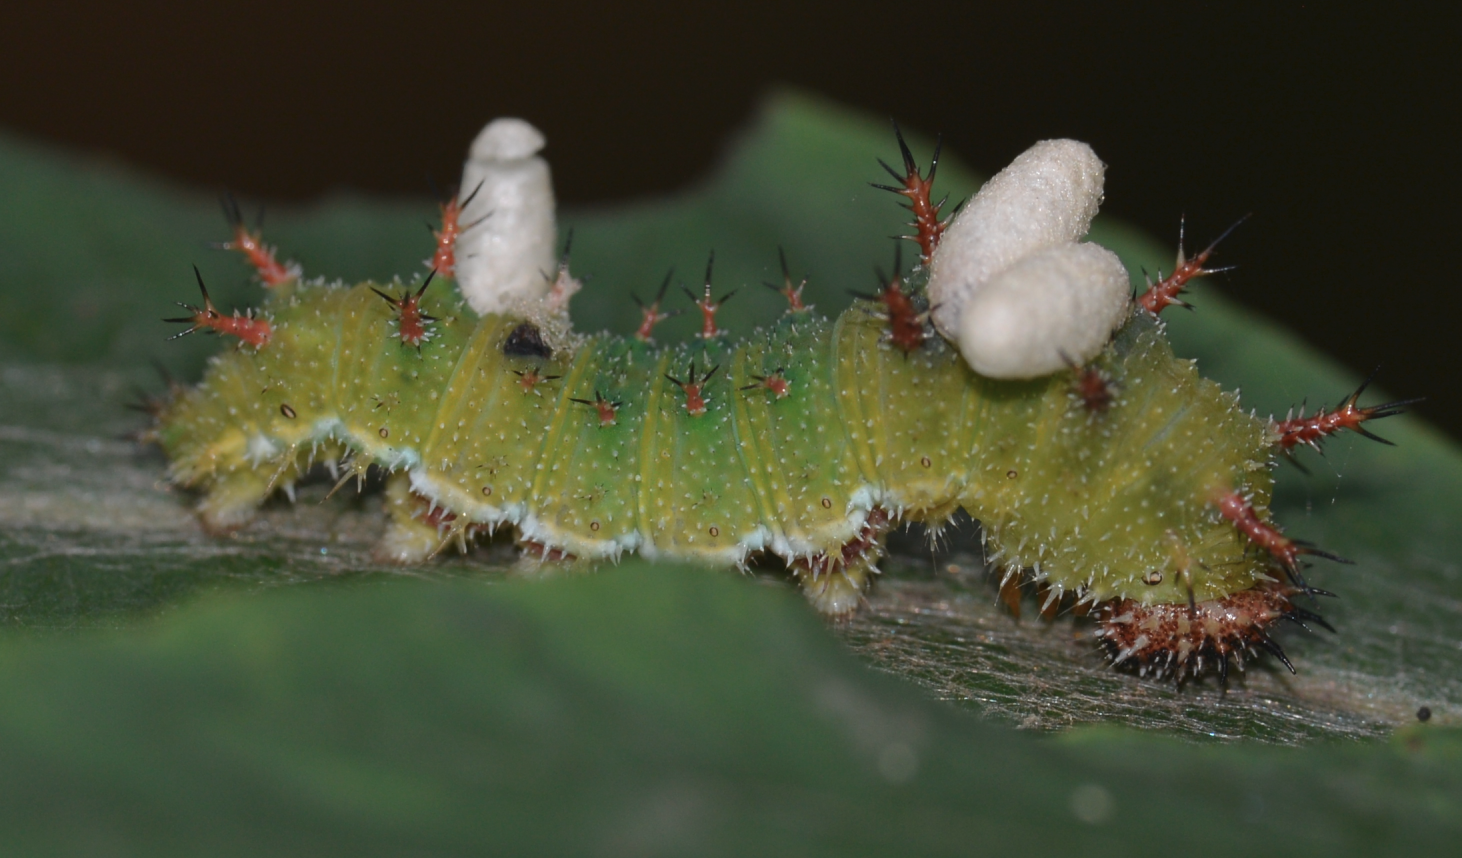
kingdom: Animalia
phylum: Arthropoda
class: Insecta
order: Lepidoptera
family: Nymphalidae
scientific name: Nymphalidae
